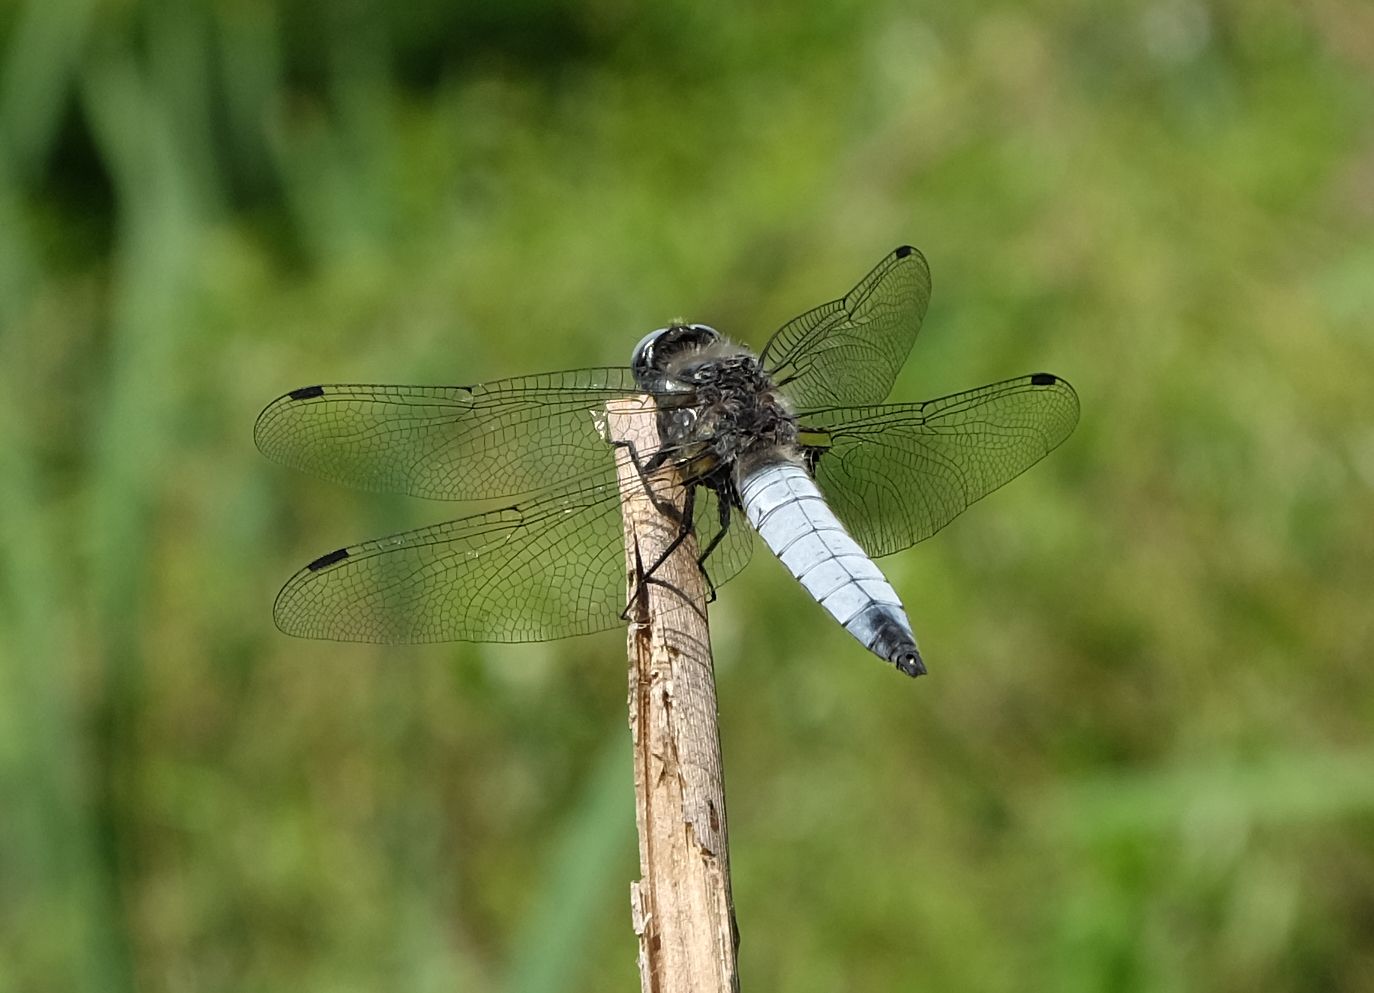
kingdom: Animalia
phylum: Arthropoda
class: Insecta
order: Odonata
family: Libellulidae
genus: Libellula
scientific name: Libellula fulva
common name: Blue chaser
